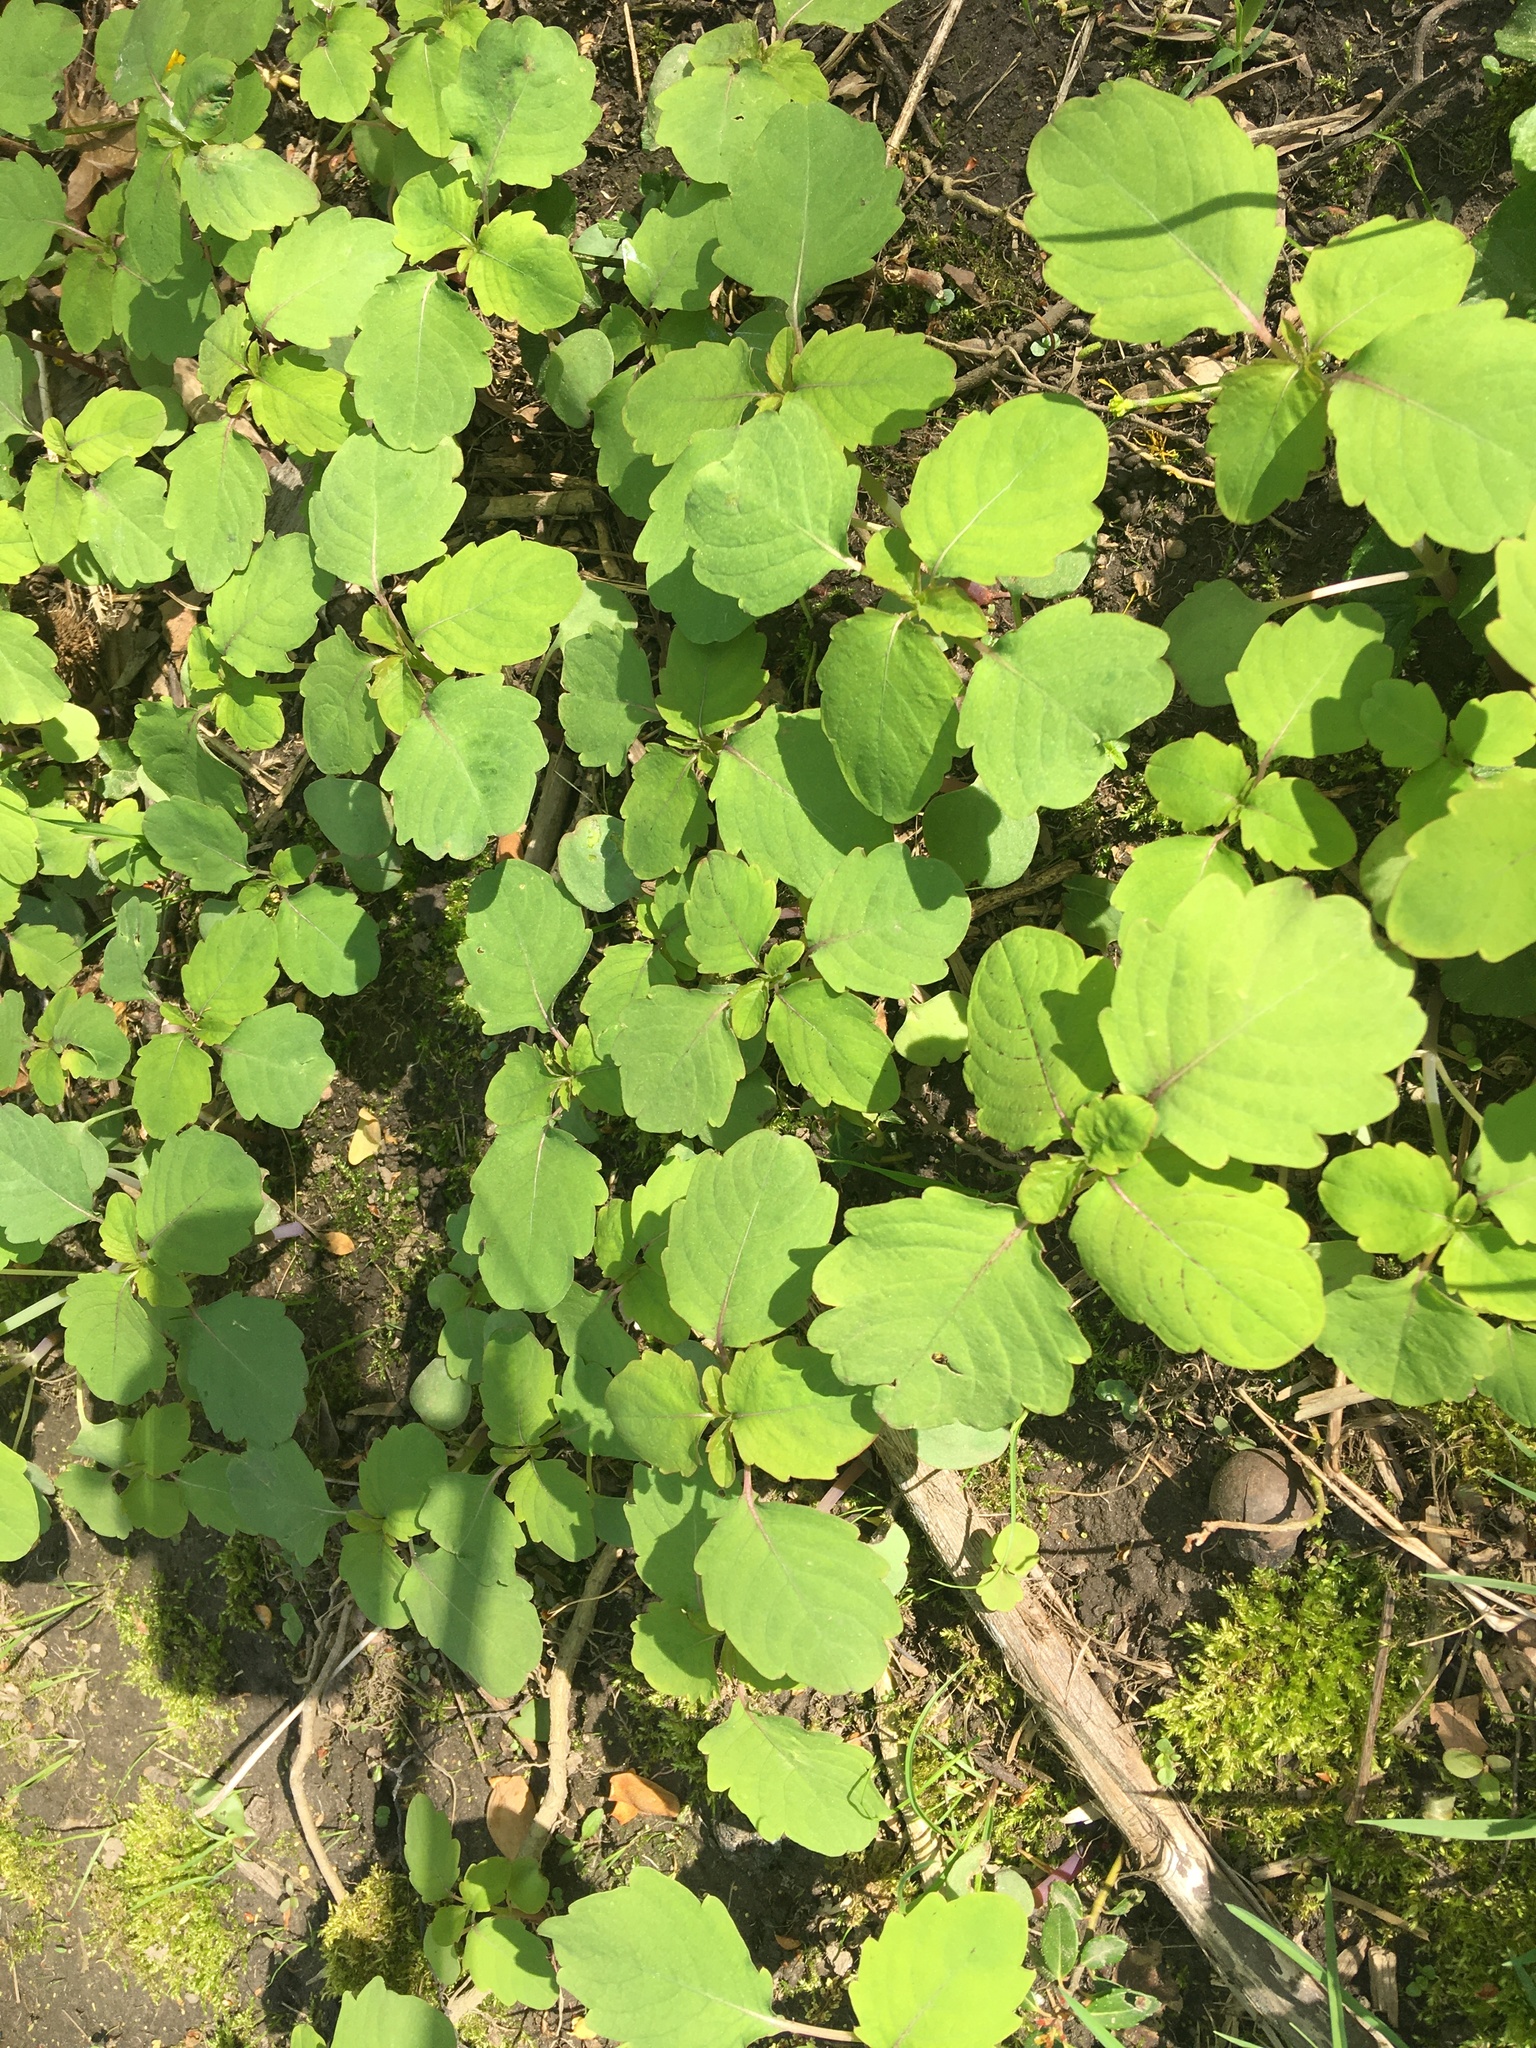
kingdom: Plantae
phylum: Tracheophyta
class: Magnoliopsida
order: Ericales
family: Balsaminaceae
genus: Impatiens
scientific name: Impatiens capensis
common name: Orange balsam
